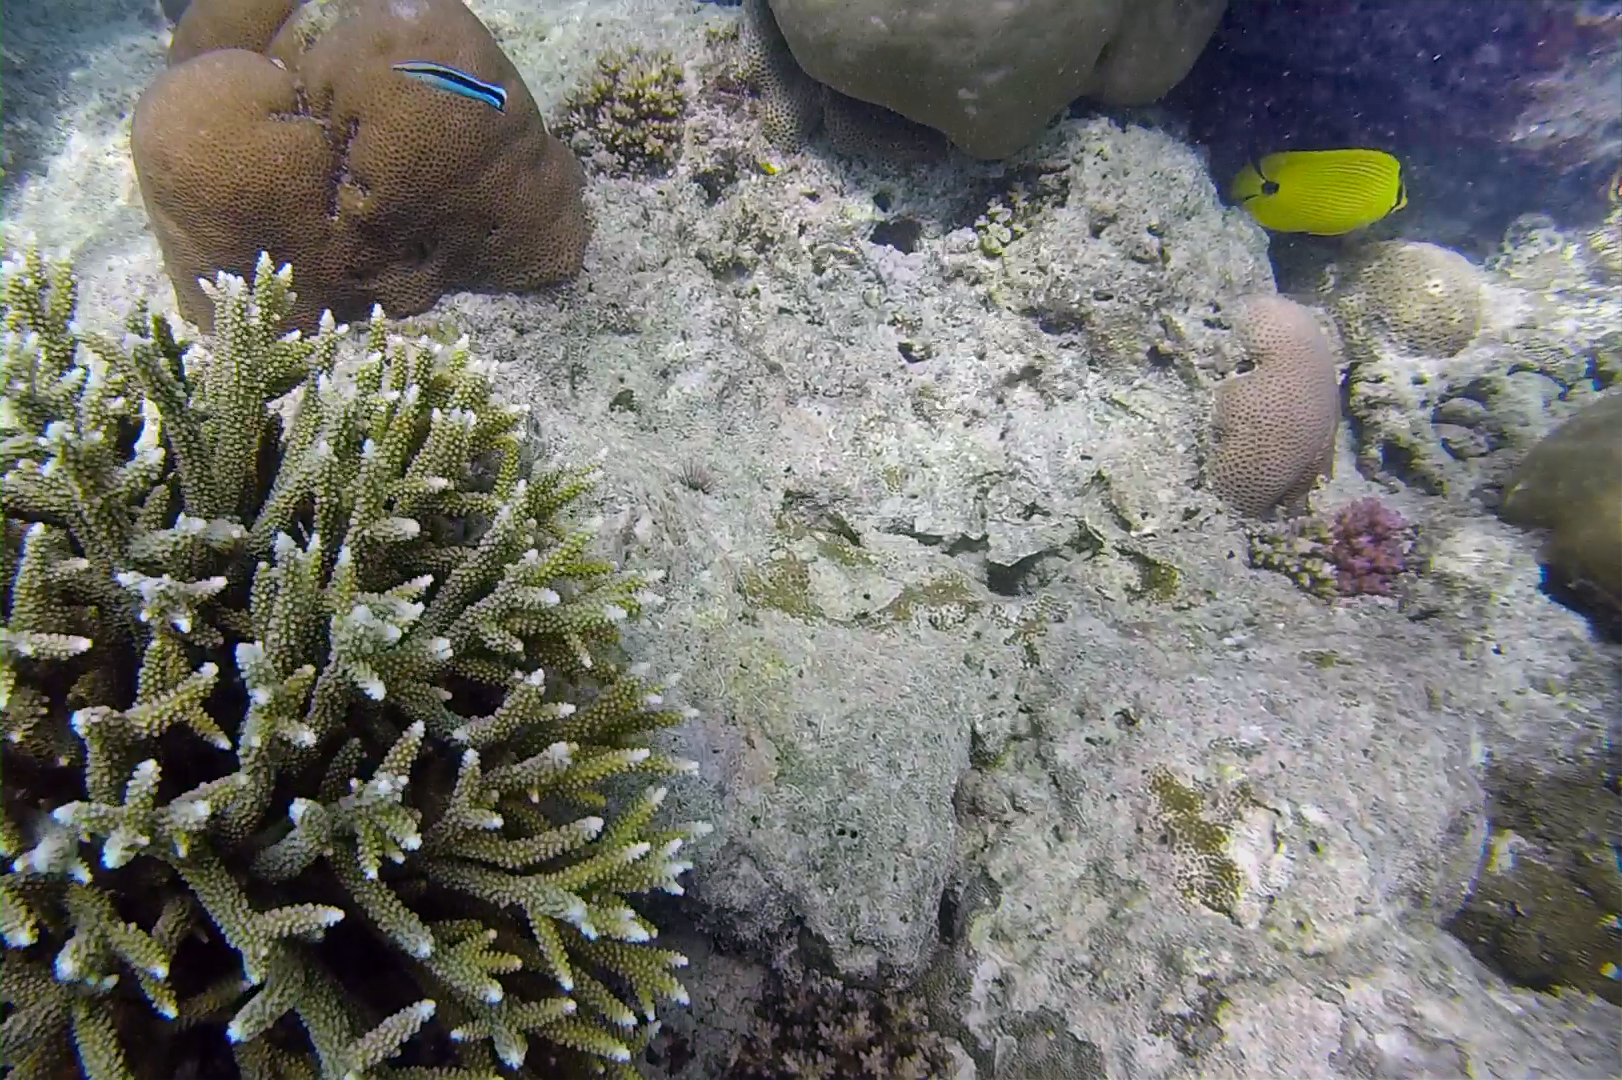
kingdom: Animalia
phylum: Chordata
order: Perciformes
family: Chaetodontidae
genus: Chaetodon
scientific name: Chaetodon andamanensis
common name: Yellow butterflyfish
